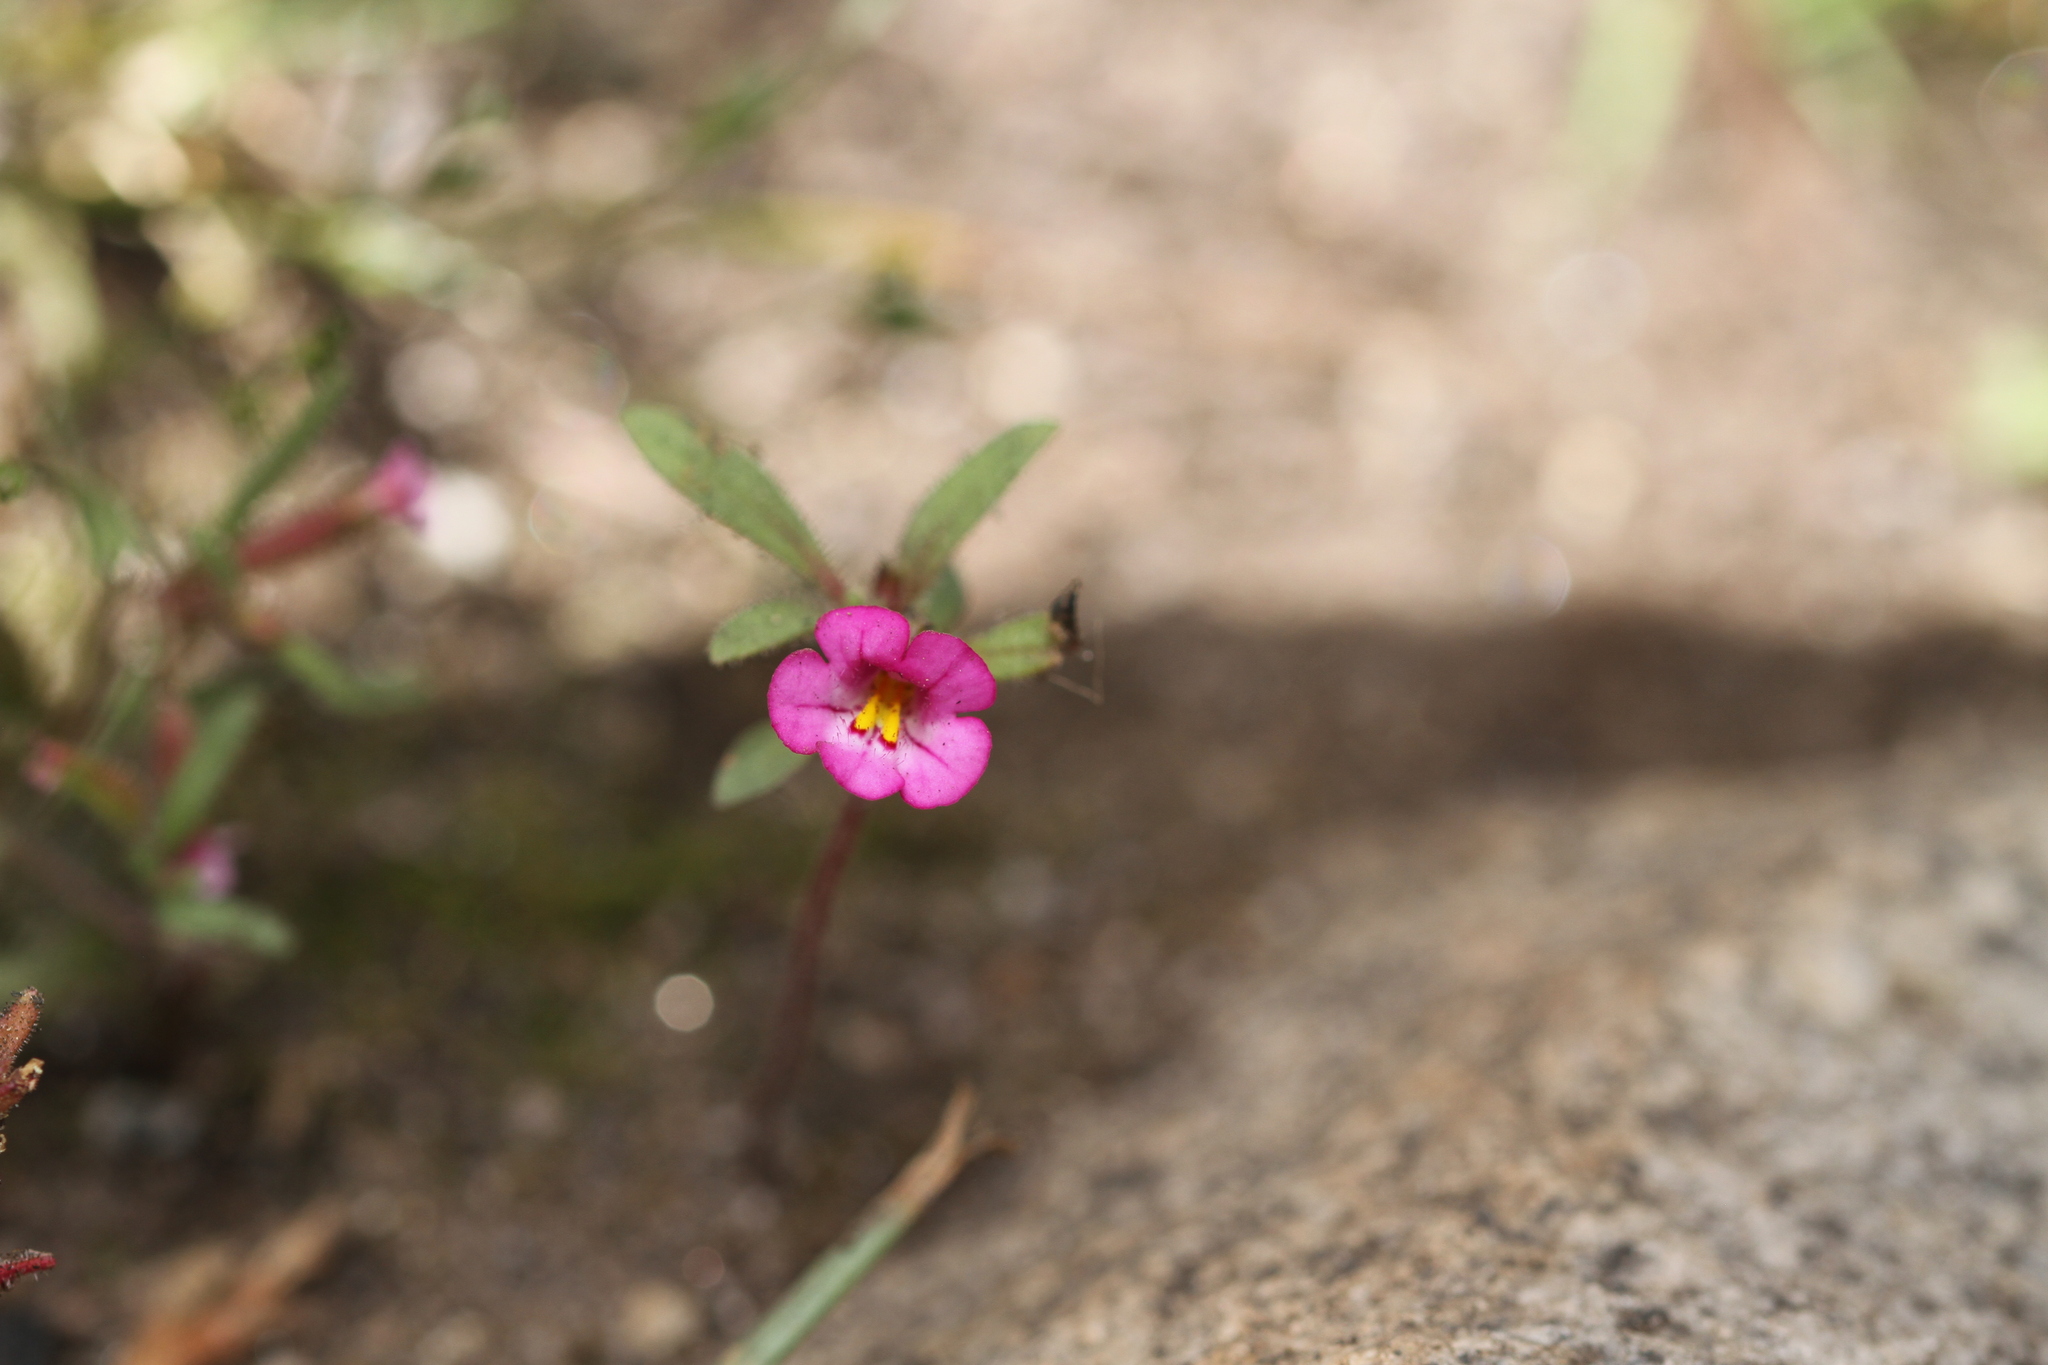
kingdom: Plantae
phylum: Tracheophyta
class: Magnoliopsida
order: Lamiales
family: Phrymaceae
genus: Diplacus
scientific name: Diplacus torreyi
